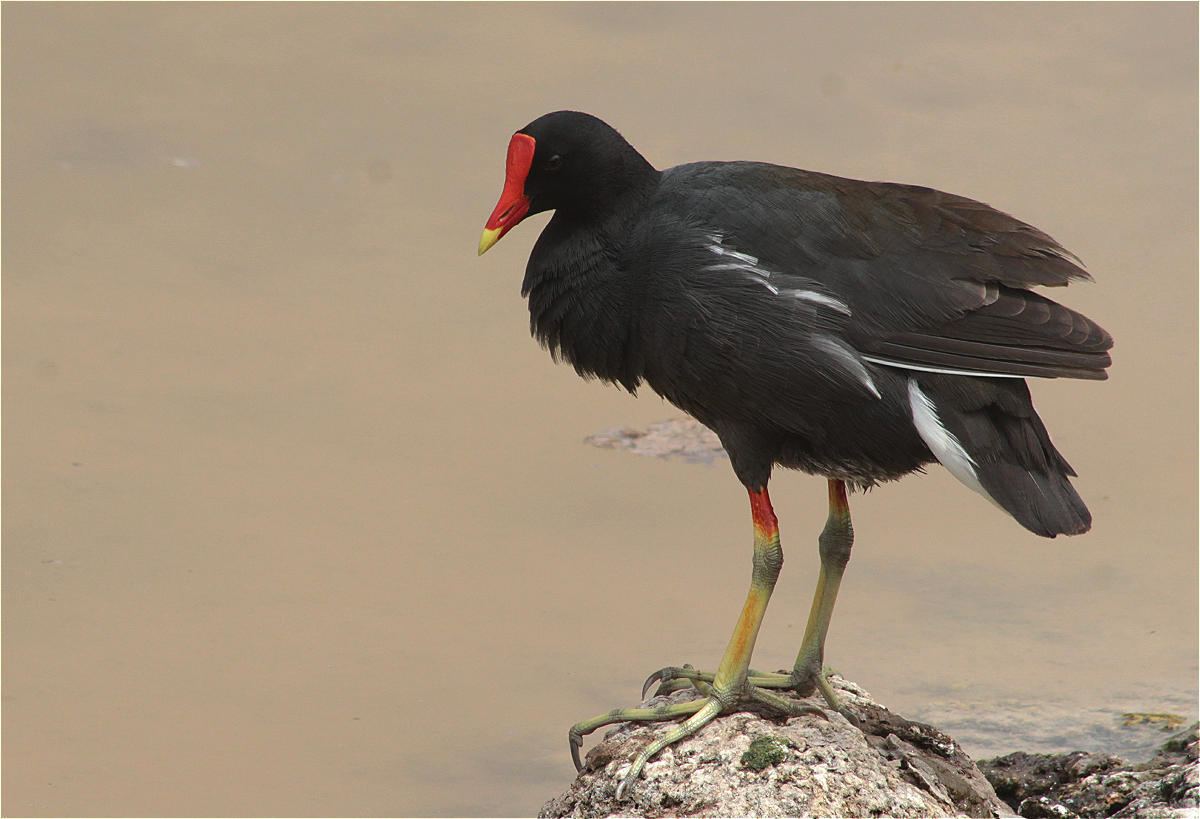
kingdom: Animalia
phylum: Chordata
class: Aves
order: Gruiformes
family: Rallidae
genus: Gallinula
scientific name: Gallinula chloropus
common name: Common moorhen
